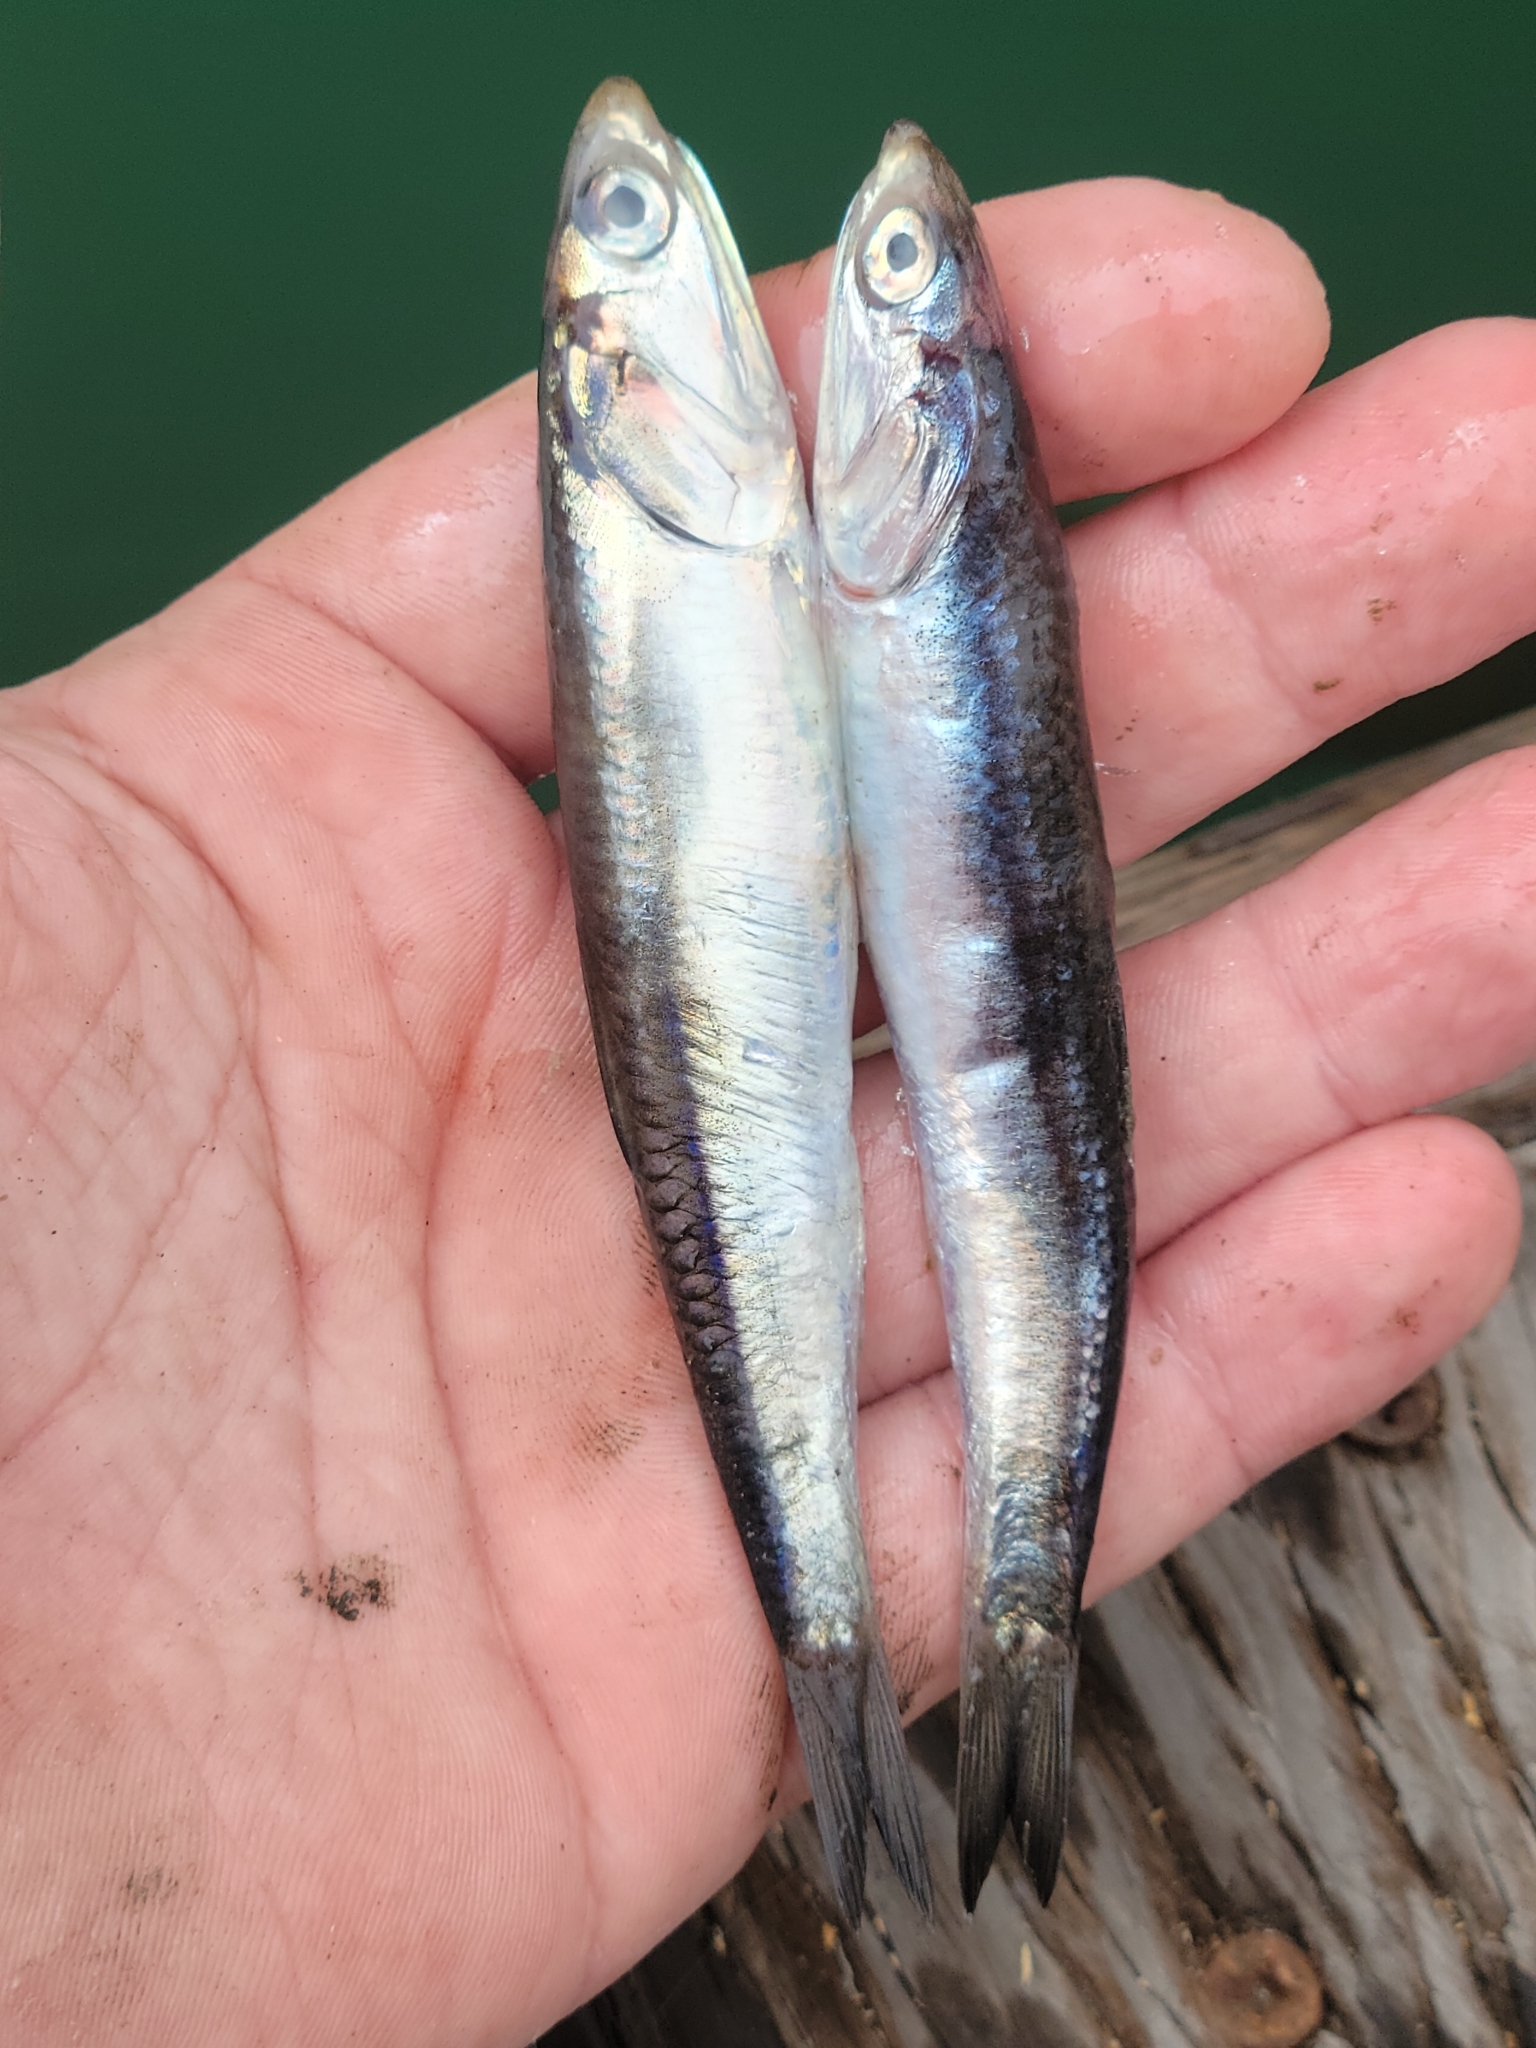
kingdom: Animalia
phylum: Chordata
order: Clupeiformes
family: Engraulidae
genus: Engraulis
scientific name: Engraulis mordax
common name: Northern anchovy
